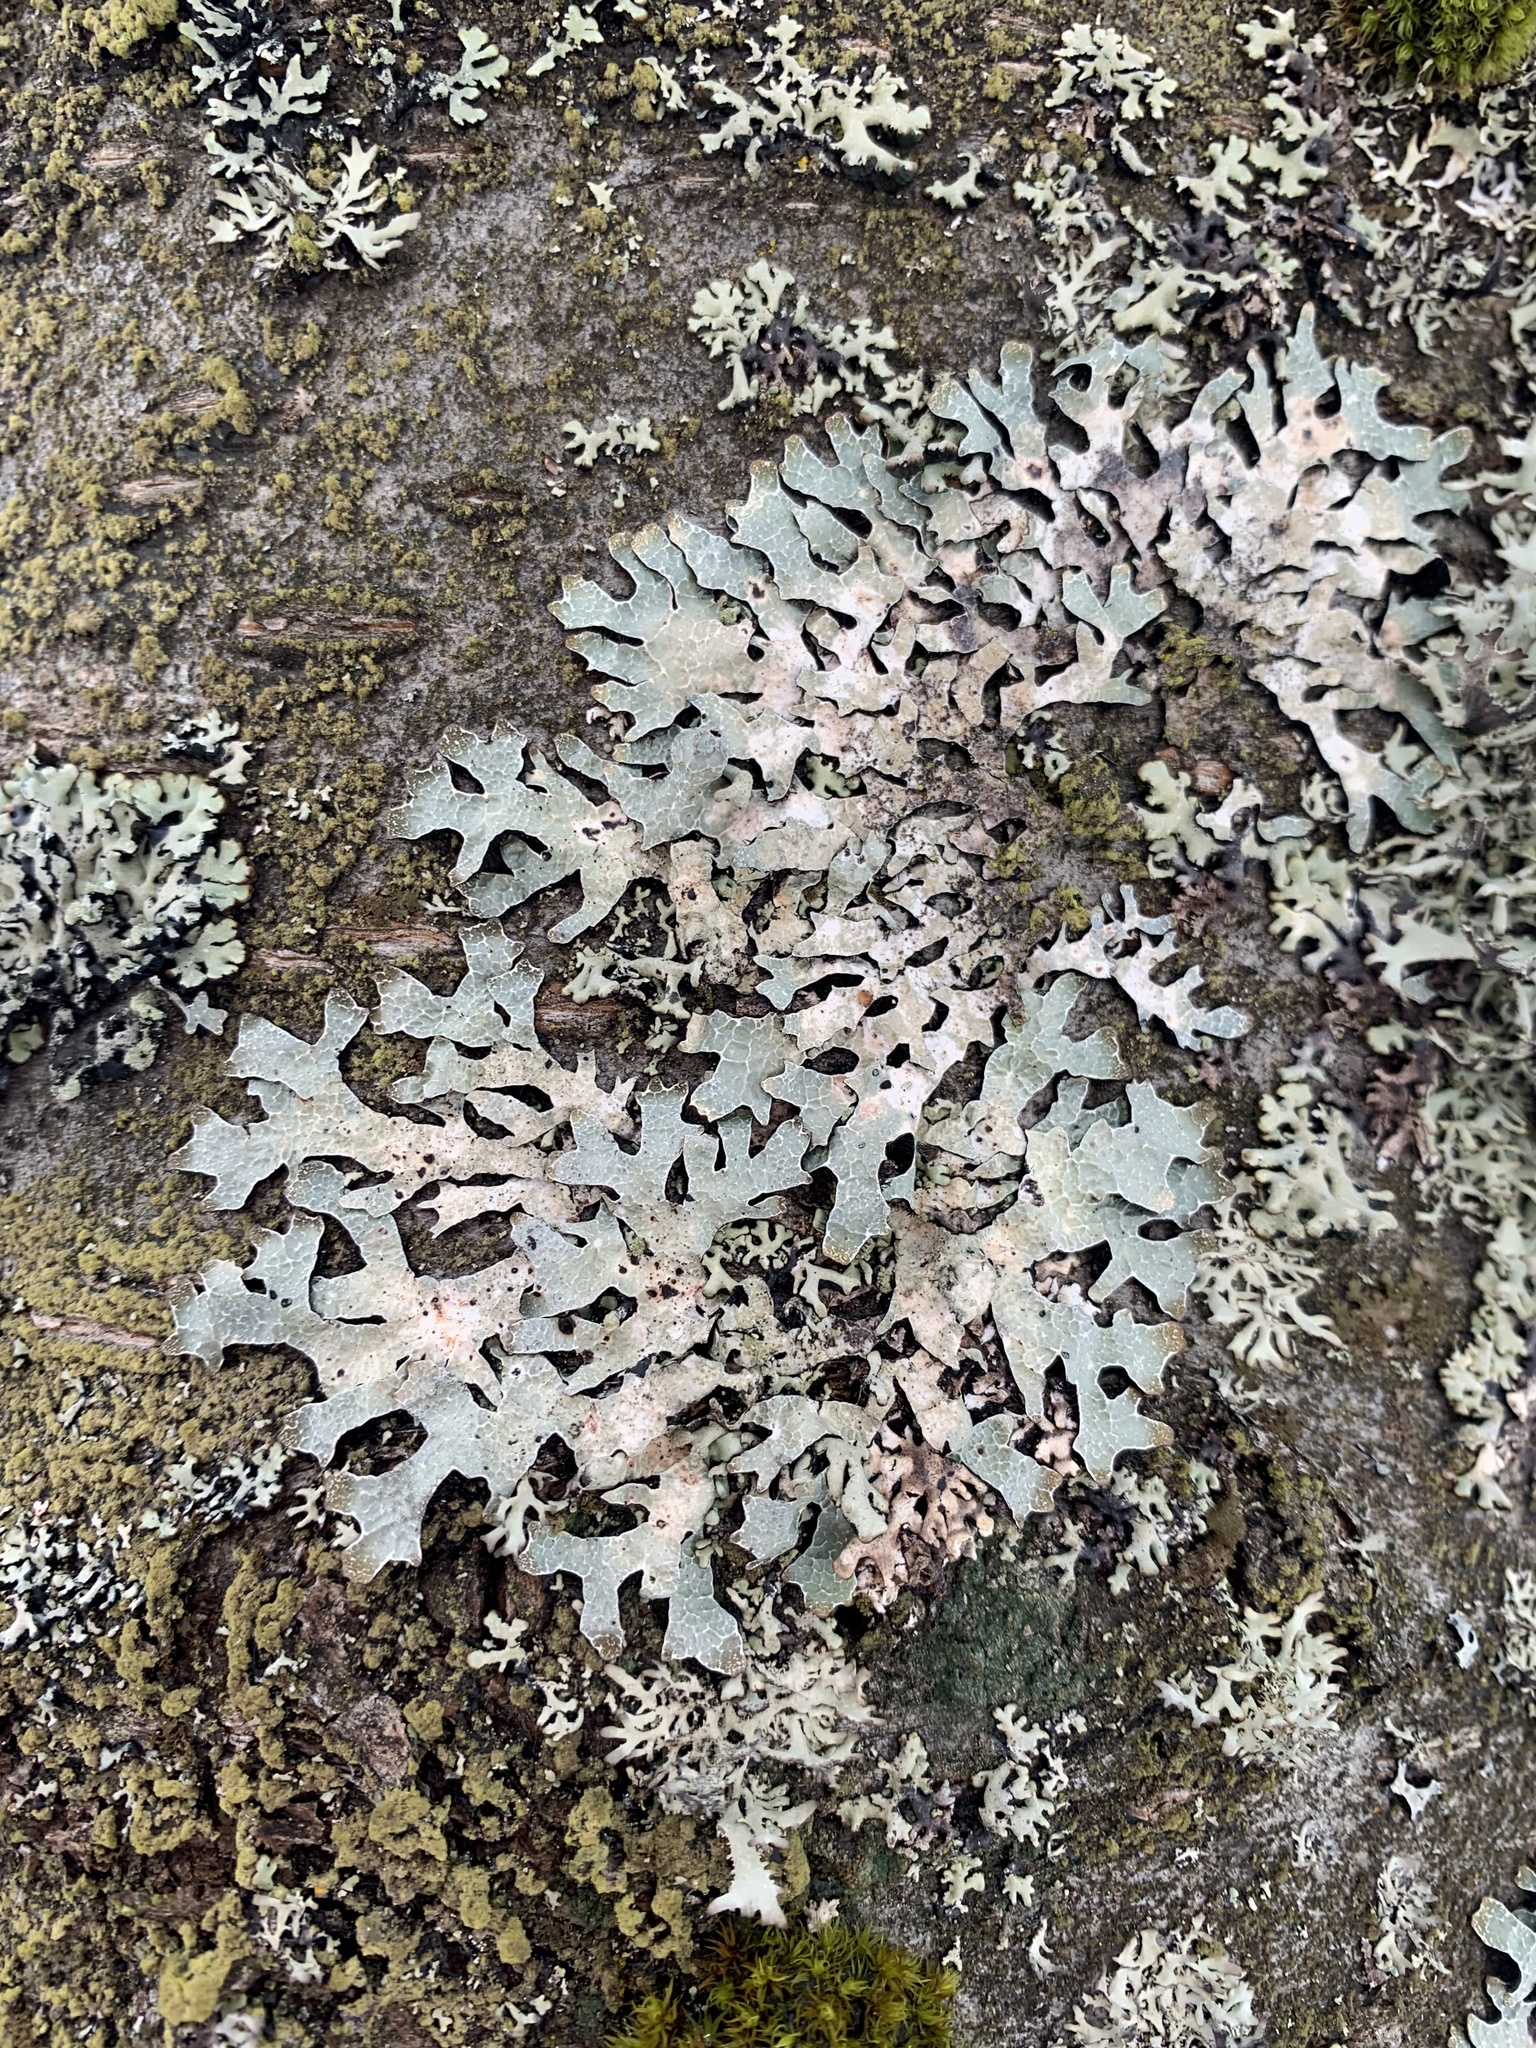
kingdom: Fungi
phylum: Ascomycota
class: Lecanoromycetes
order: Lecanorales
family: Parmeliaceae
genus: Parmelia
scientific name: Parmelia sulcata
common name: Netted shield lichen
